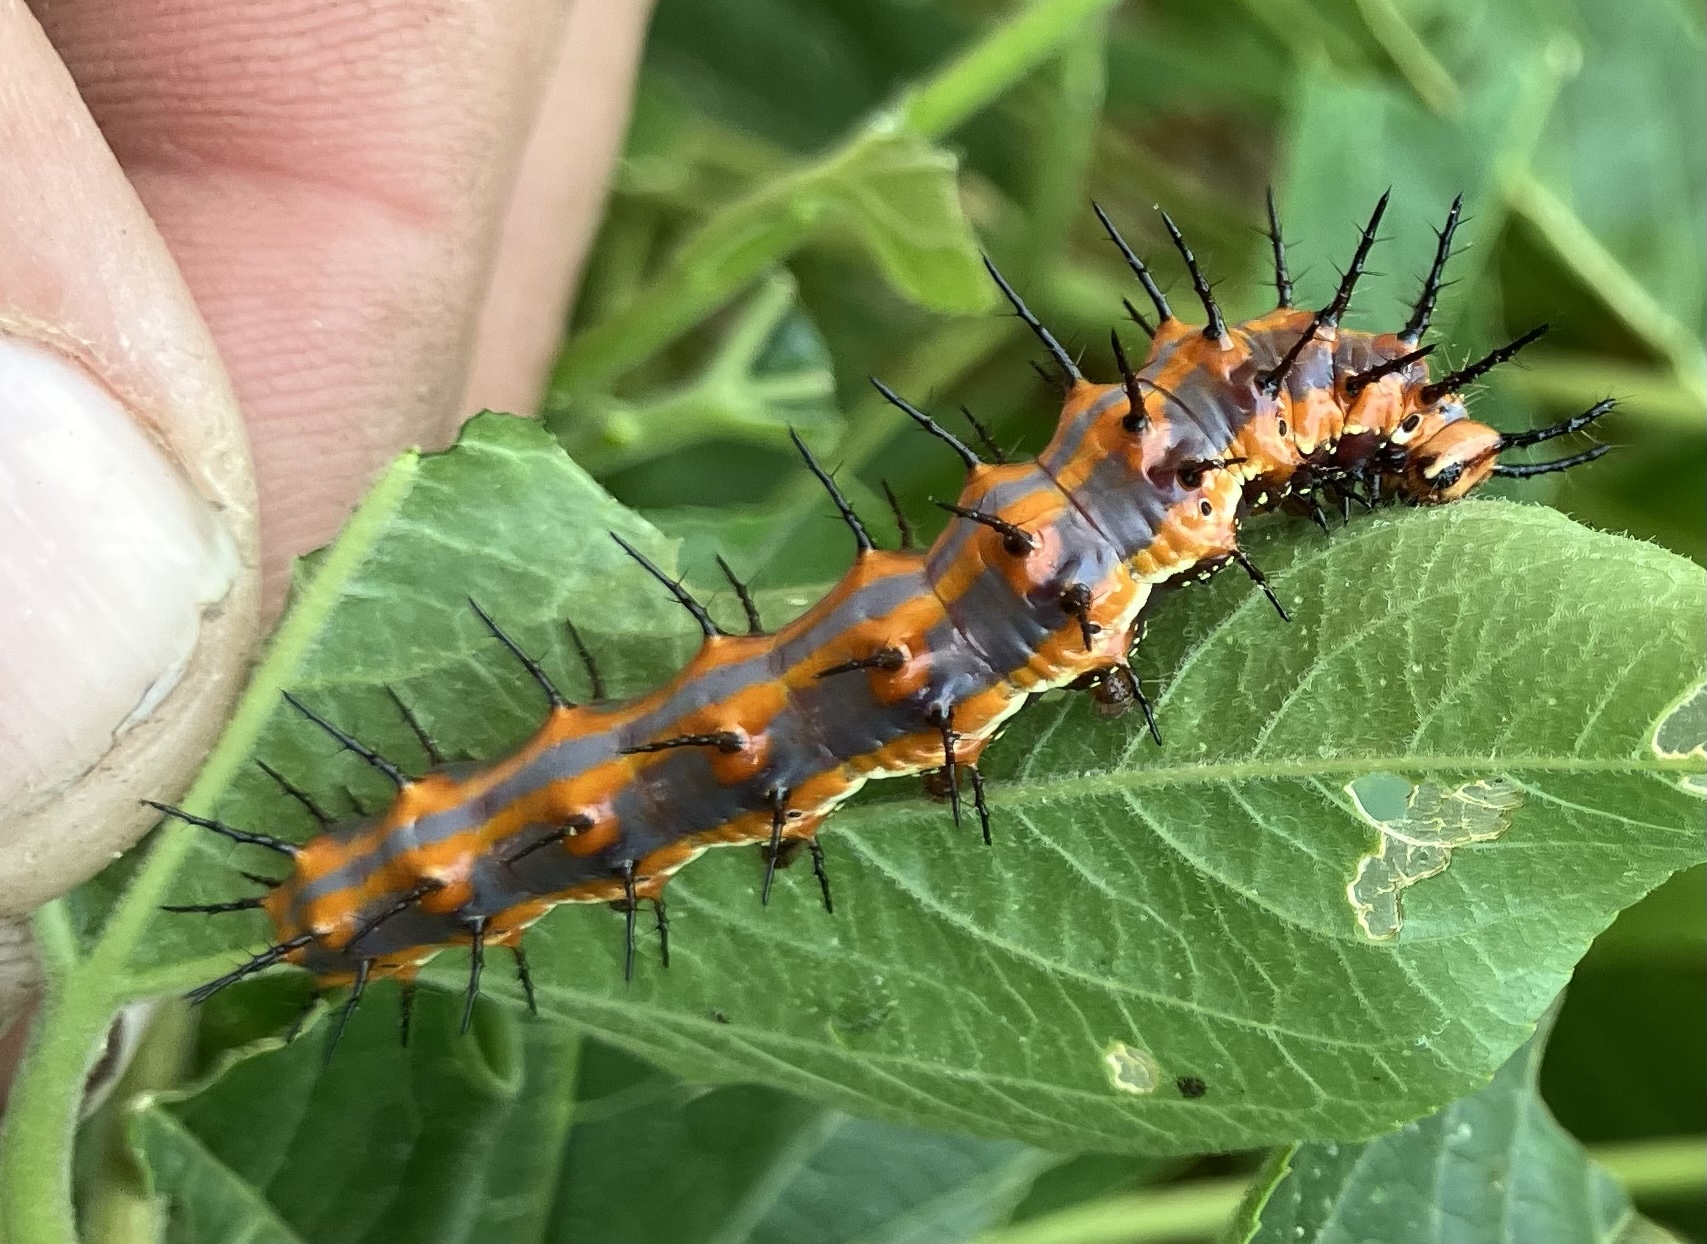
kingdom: Animalia
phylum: Arthropoda
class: Insecta
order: Lepidoptera
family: Nymphalidae
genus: Dione
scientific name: Dione vanillae
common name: Gulf fritillary
